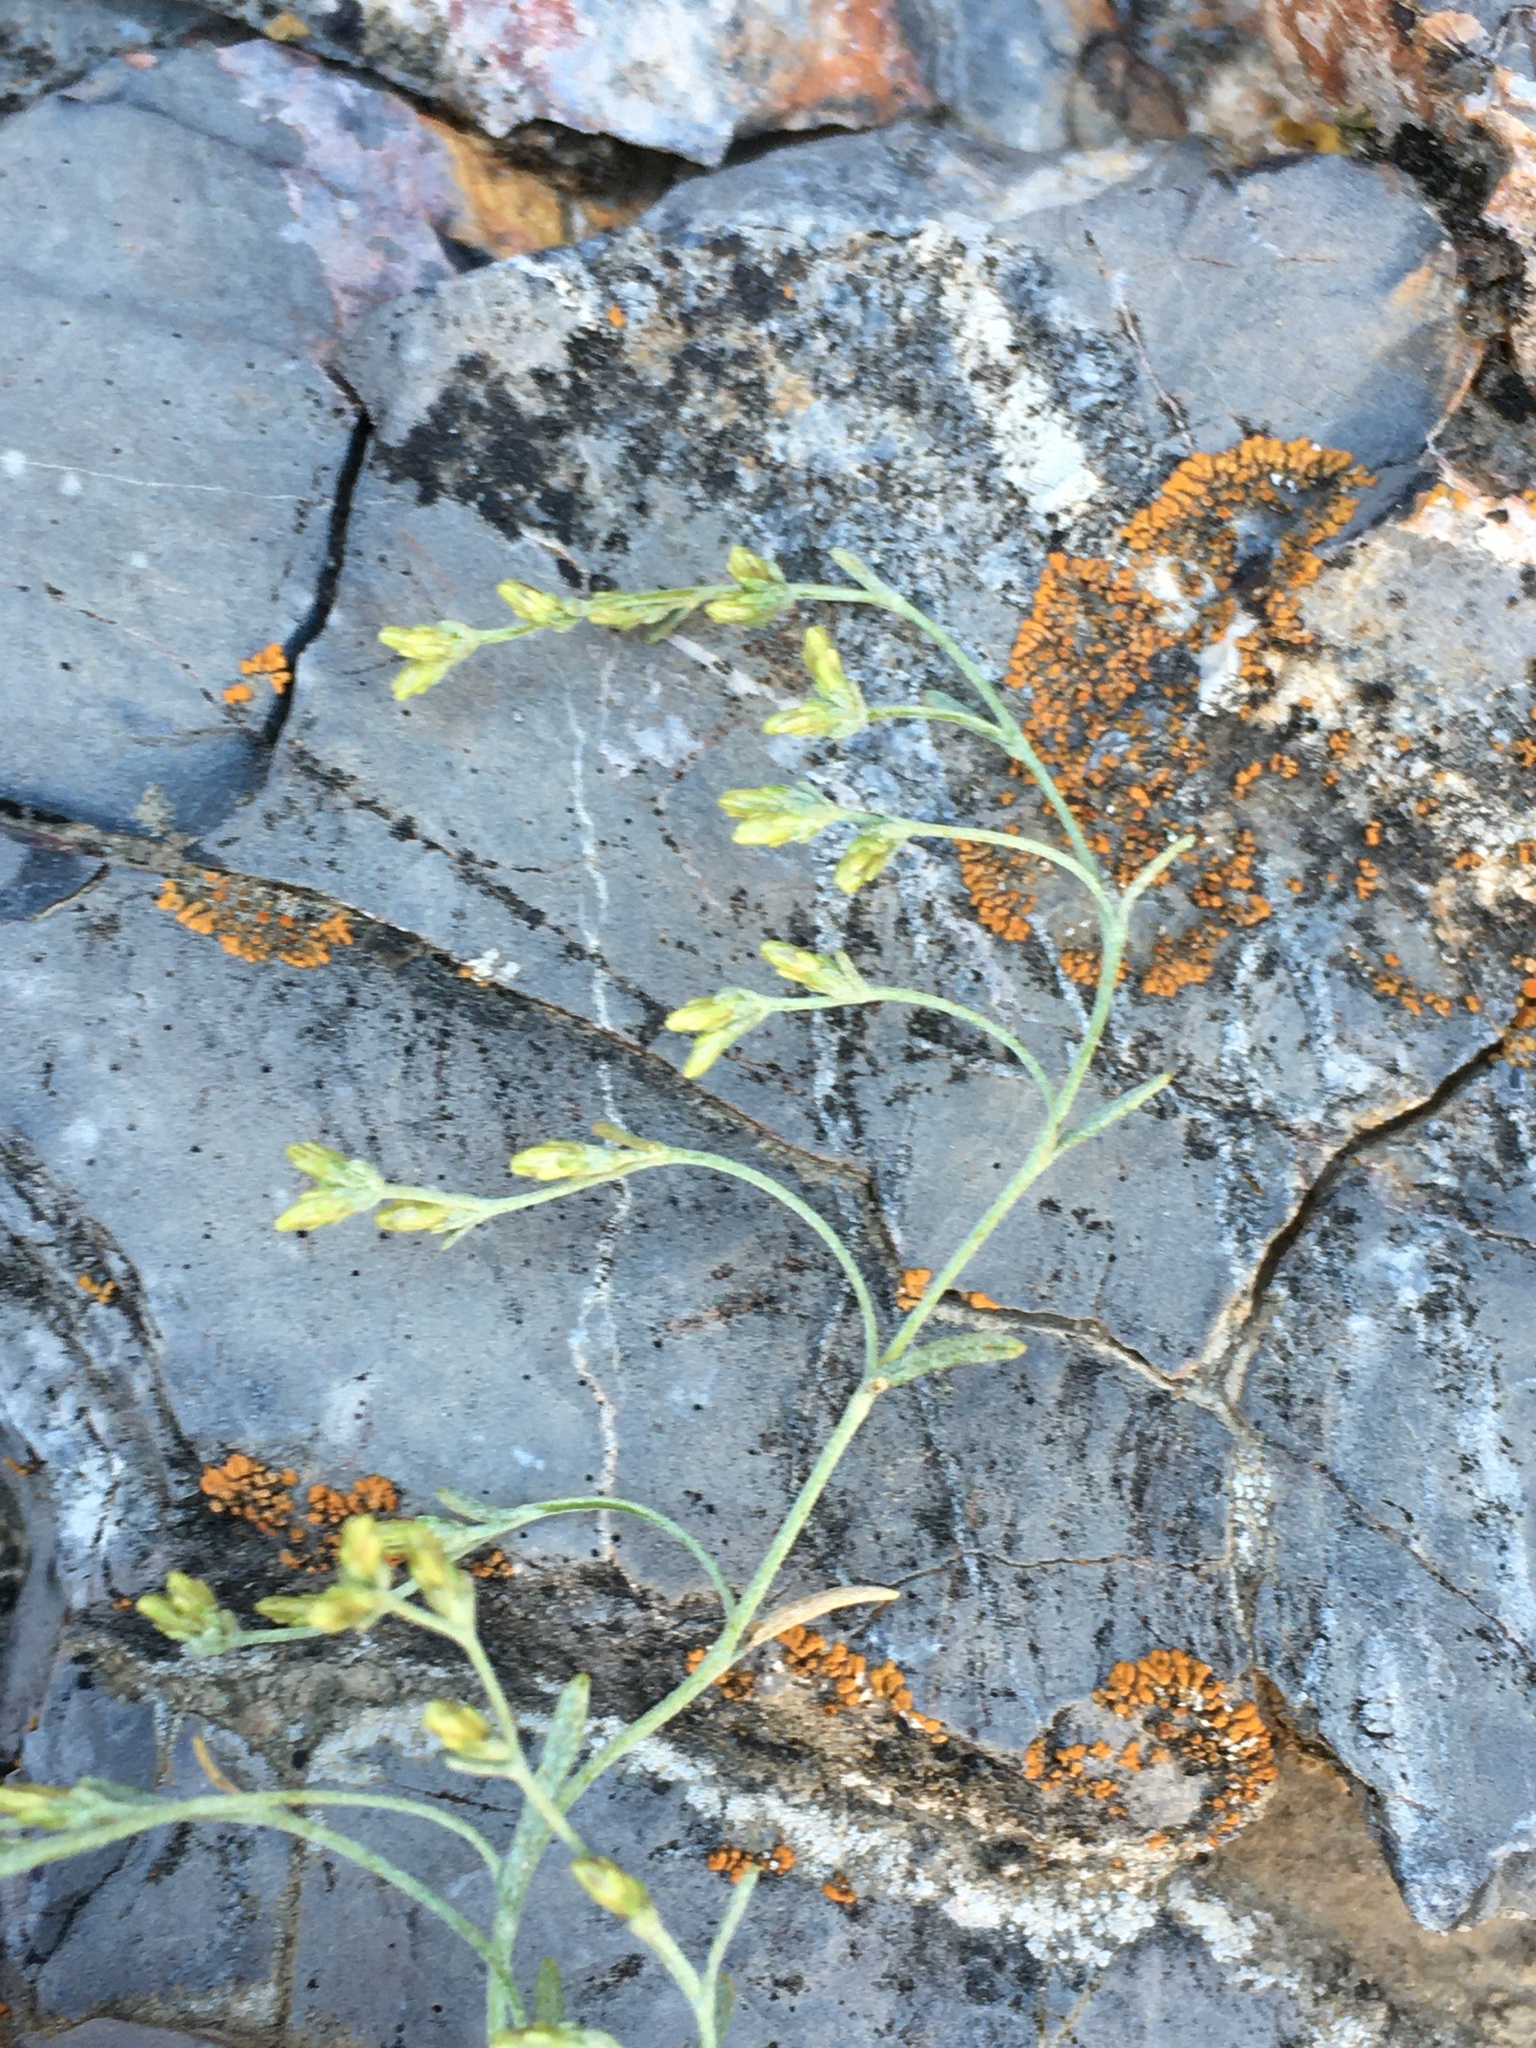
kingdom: Plantae
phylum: Tracheophyta
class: Magnoliopsida
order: Asterales
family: Asteraceae
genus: Artemisia
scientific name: Artemisia nova
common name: Black-sage
